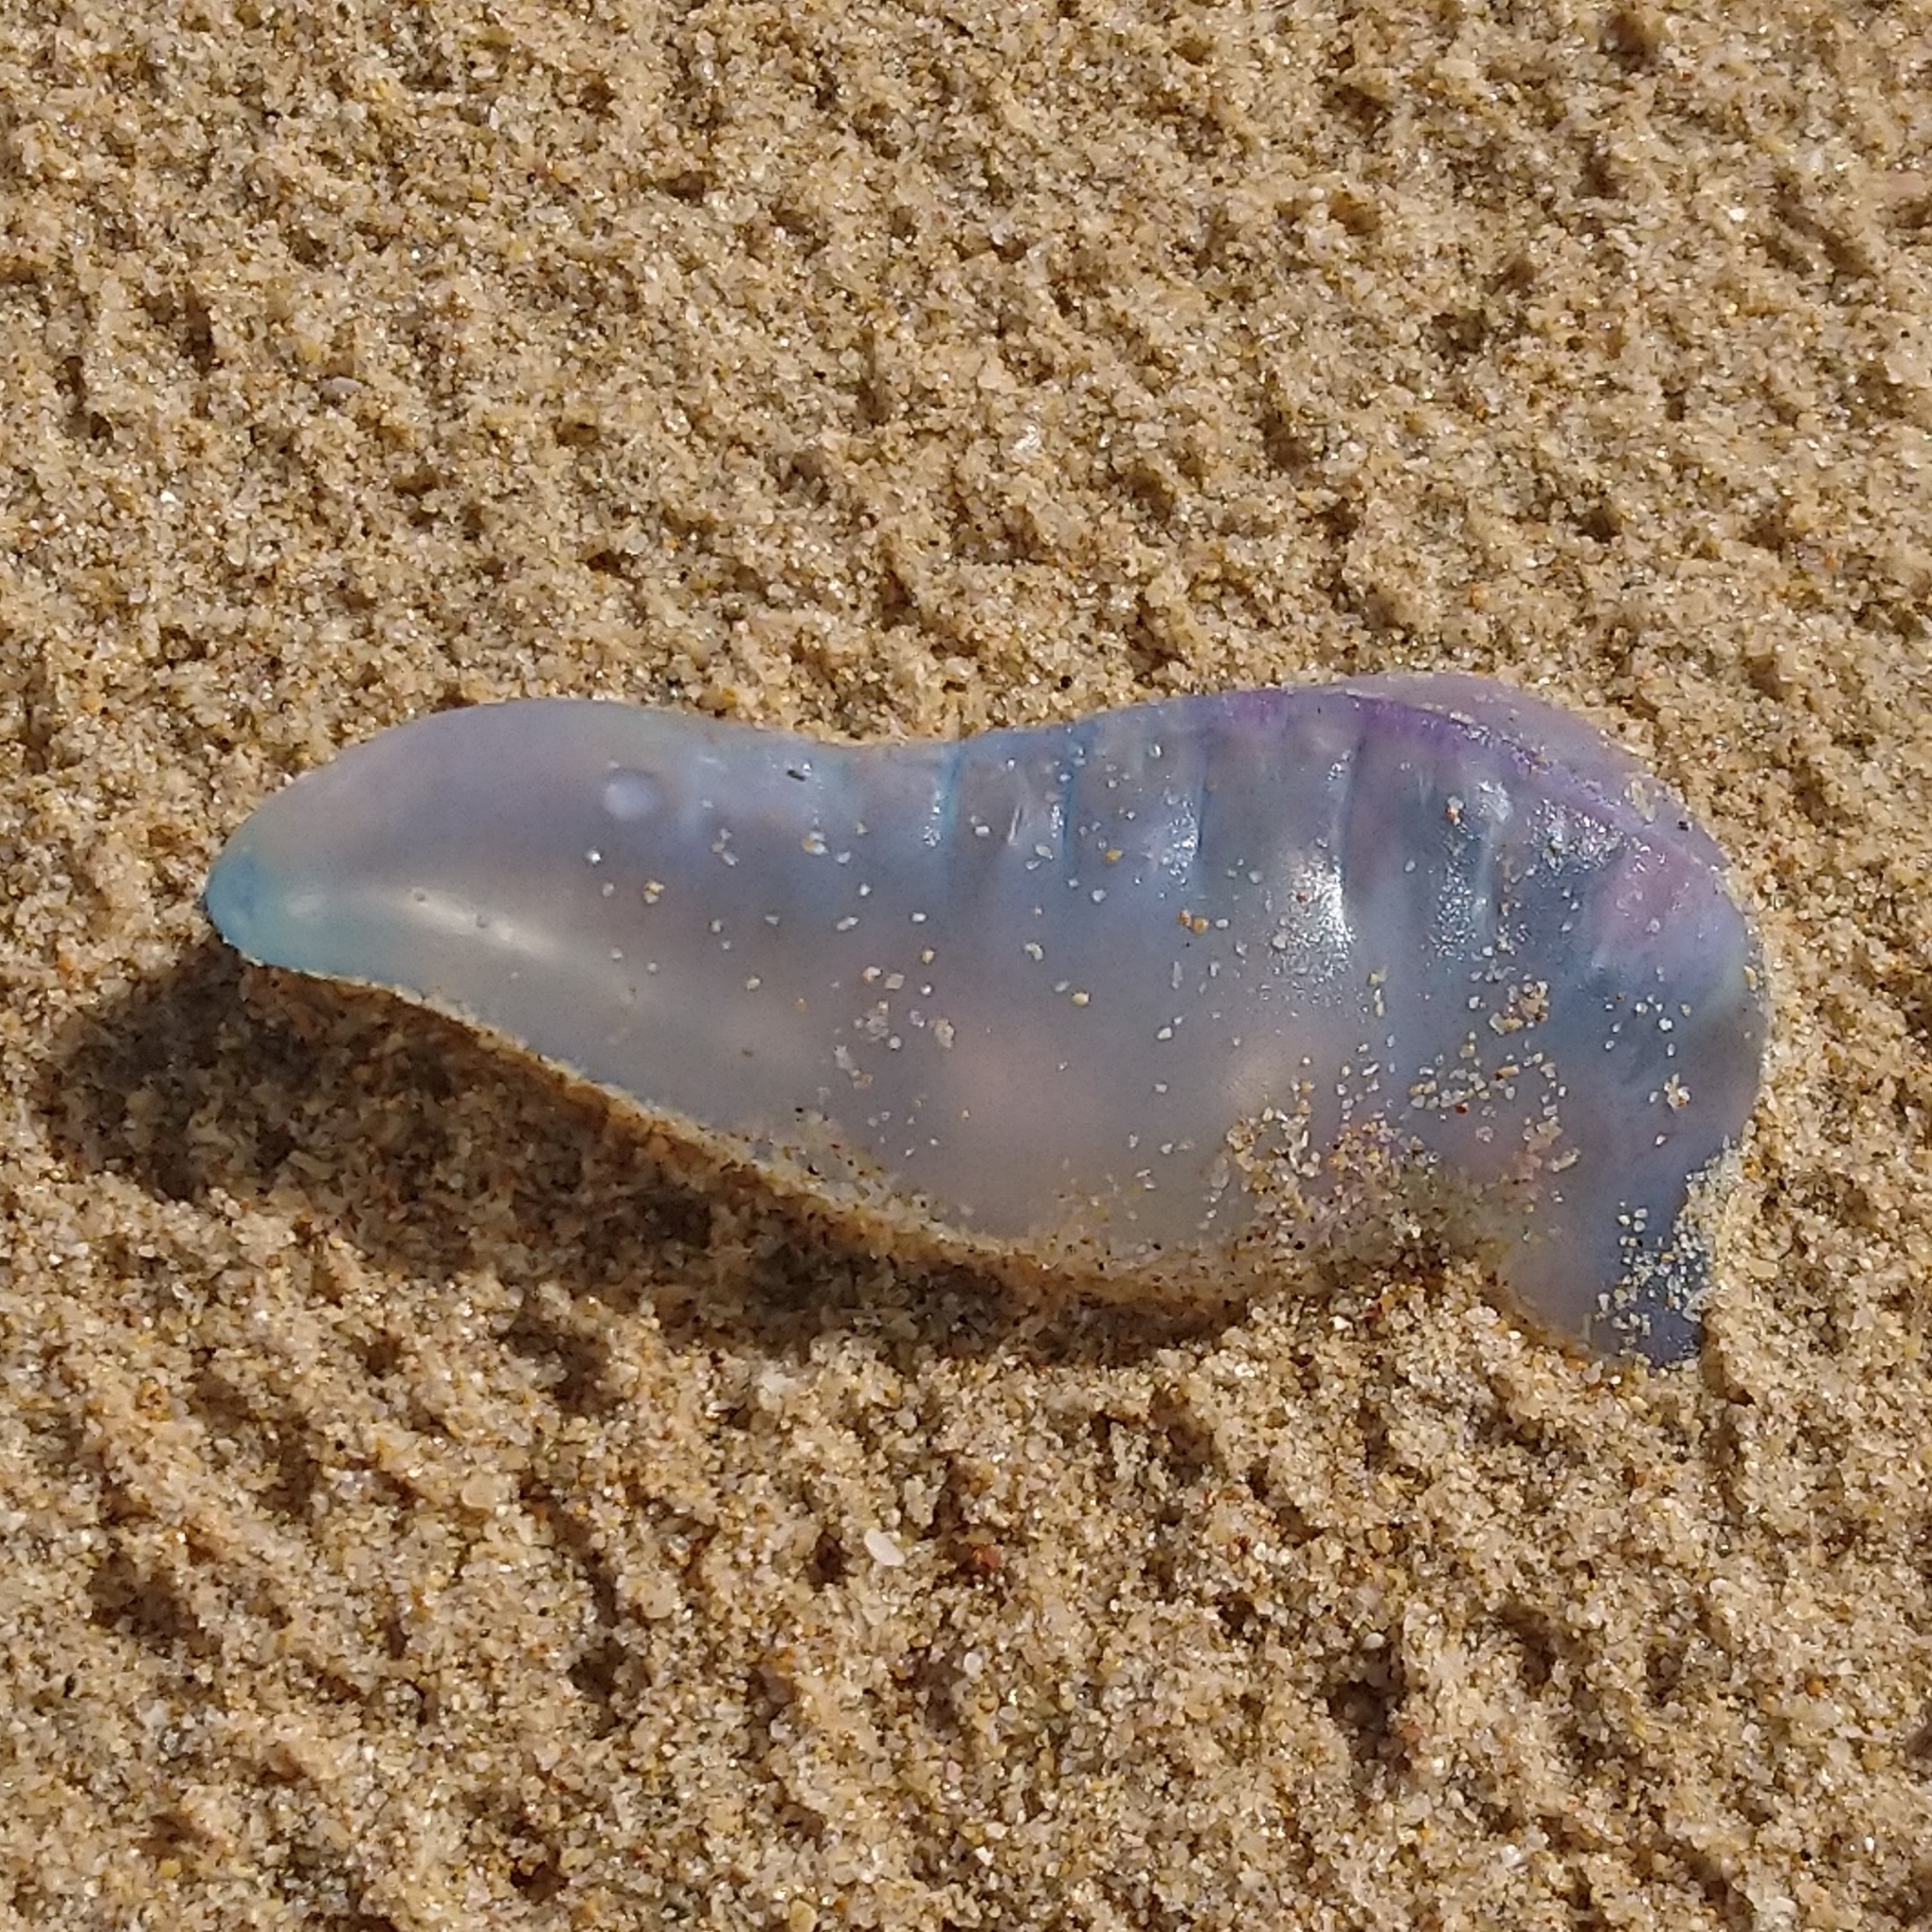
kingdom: Animalia
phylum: Cnidaria
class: Hydrozoa
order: Siphonophorae
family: Physaliidae
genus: Physalia
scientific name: Physalia physalis
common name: Portuguese man-of-war
